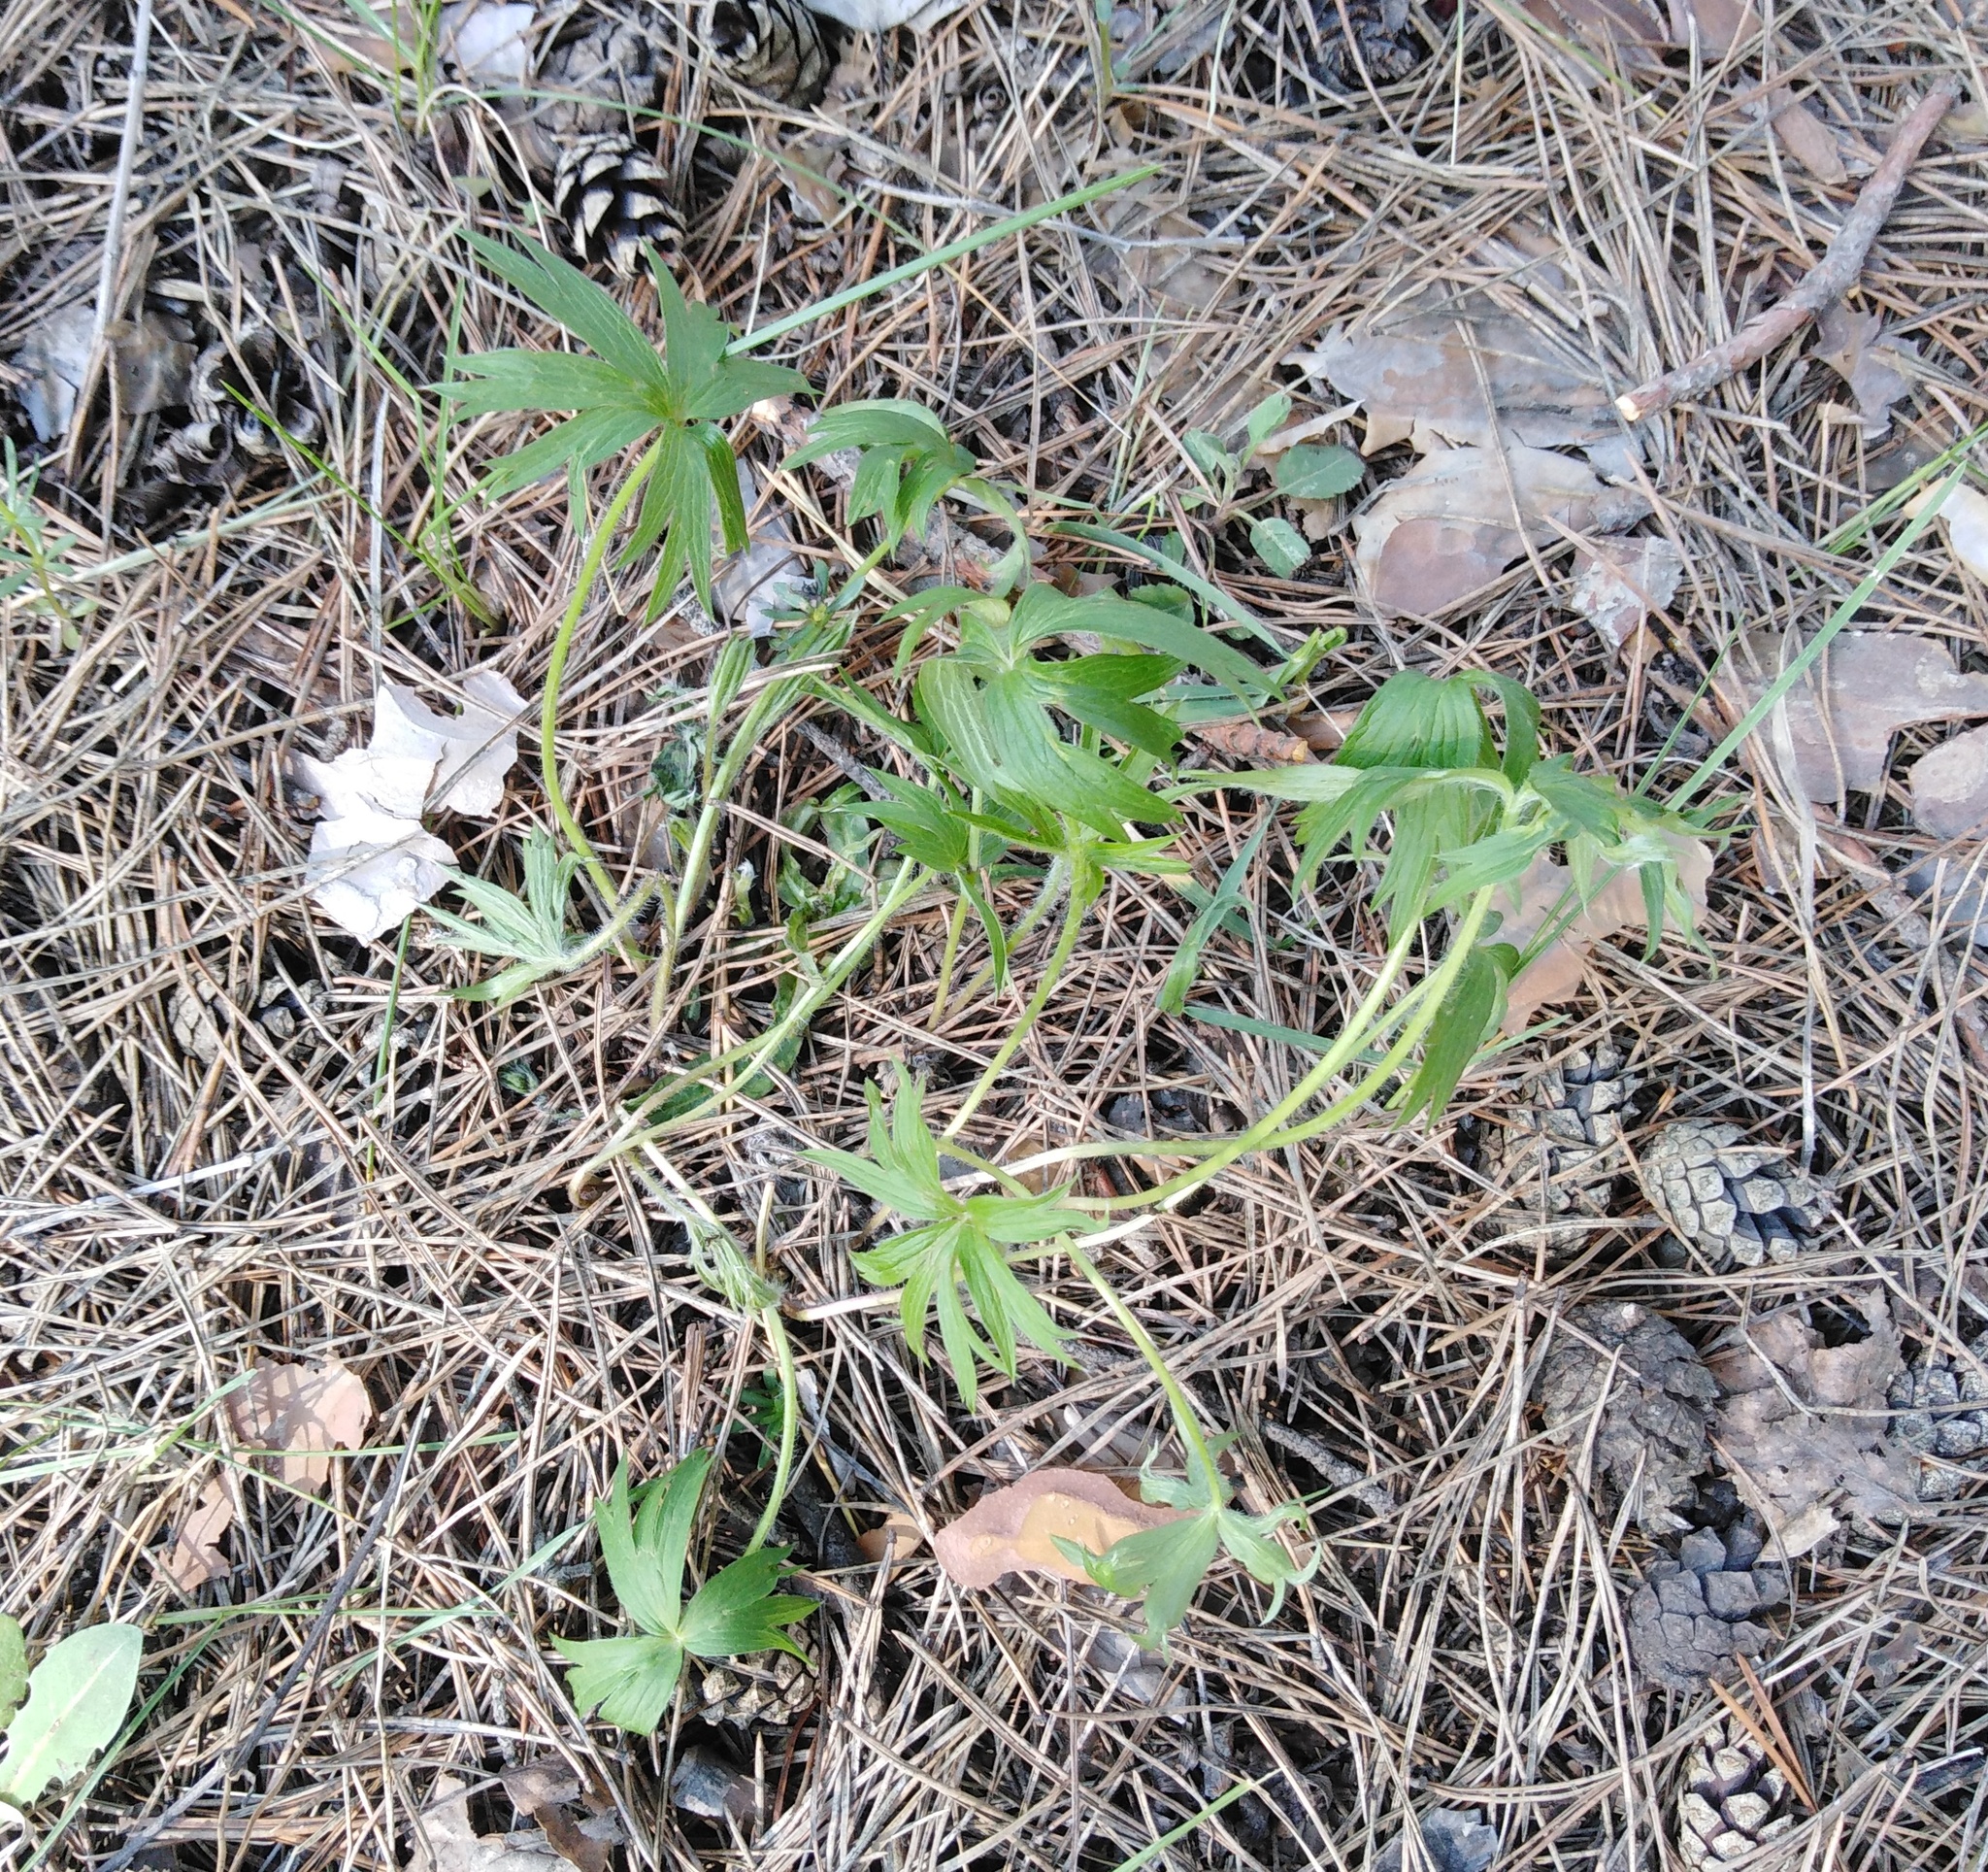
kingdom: Plantae
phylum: Tracheophyta
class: Magnoliopsida
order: Ranunculales
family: Ranunculaceae
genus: Pulsatilla
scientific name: Pulsatilla patens
